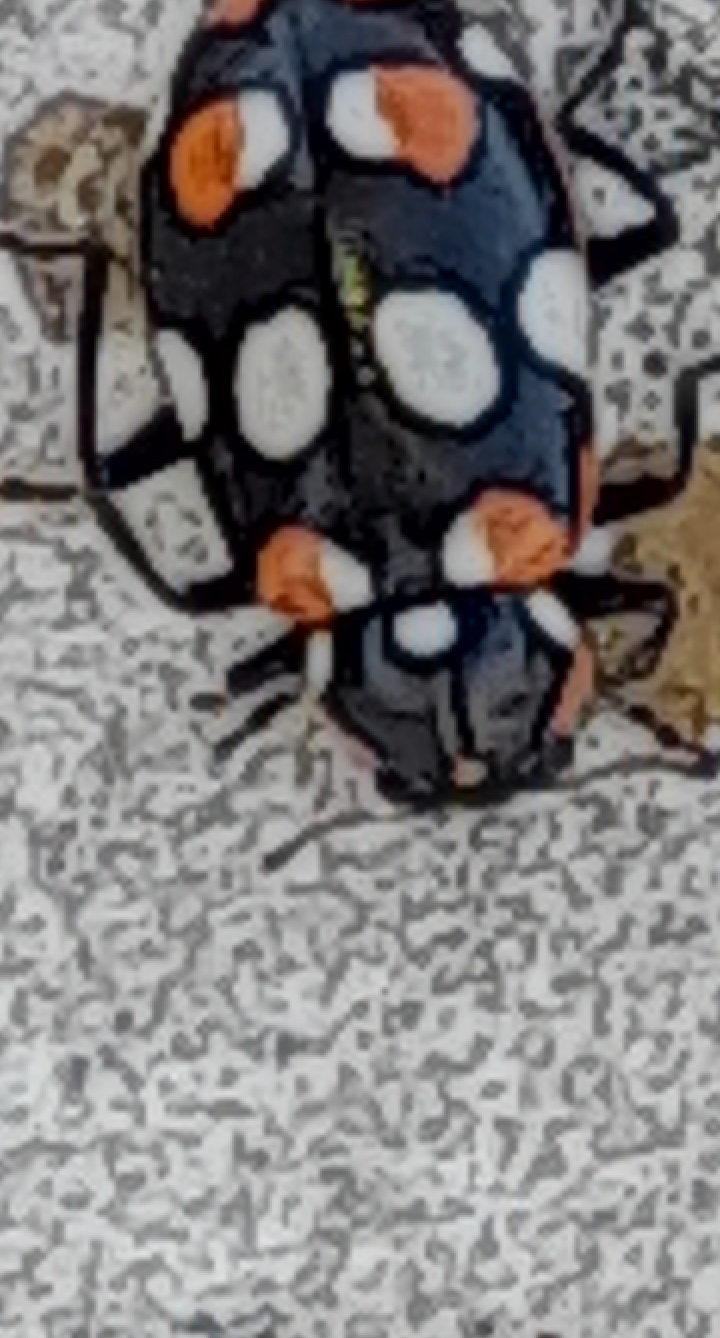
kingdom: Animalia
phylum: Arthropoda
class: Insecta
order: Coleoptera
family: Coccinellidae
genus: Eriopis
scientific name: Eriopis connexa
